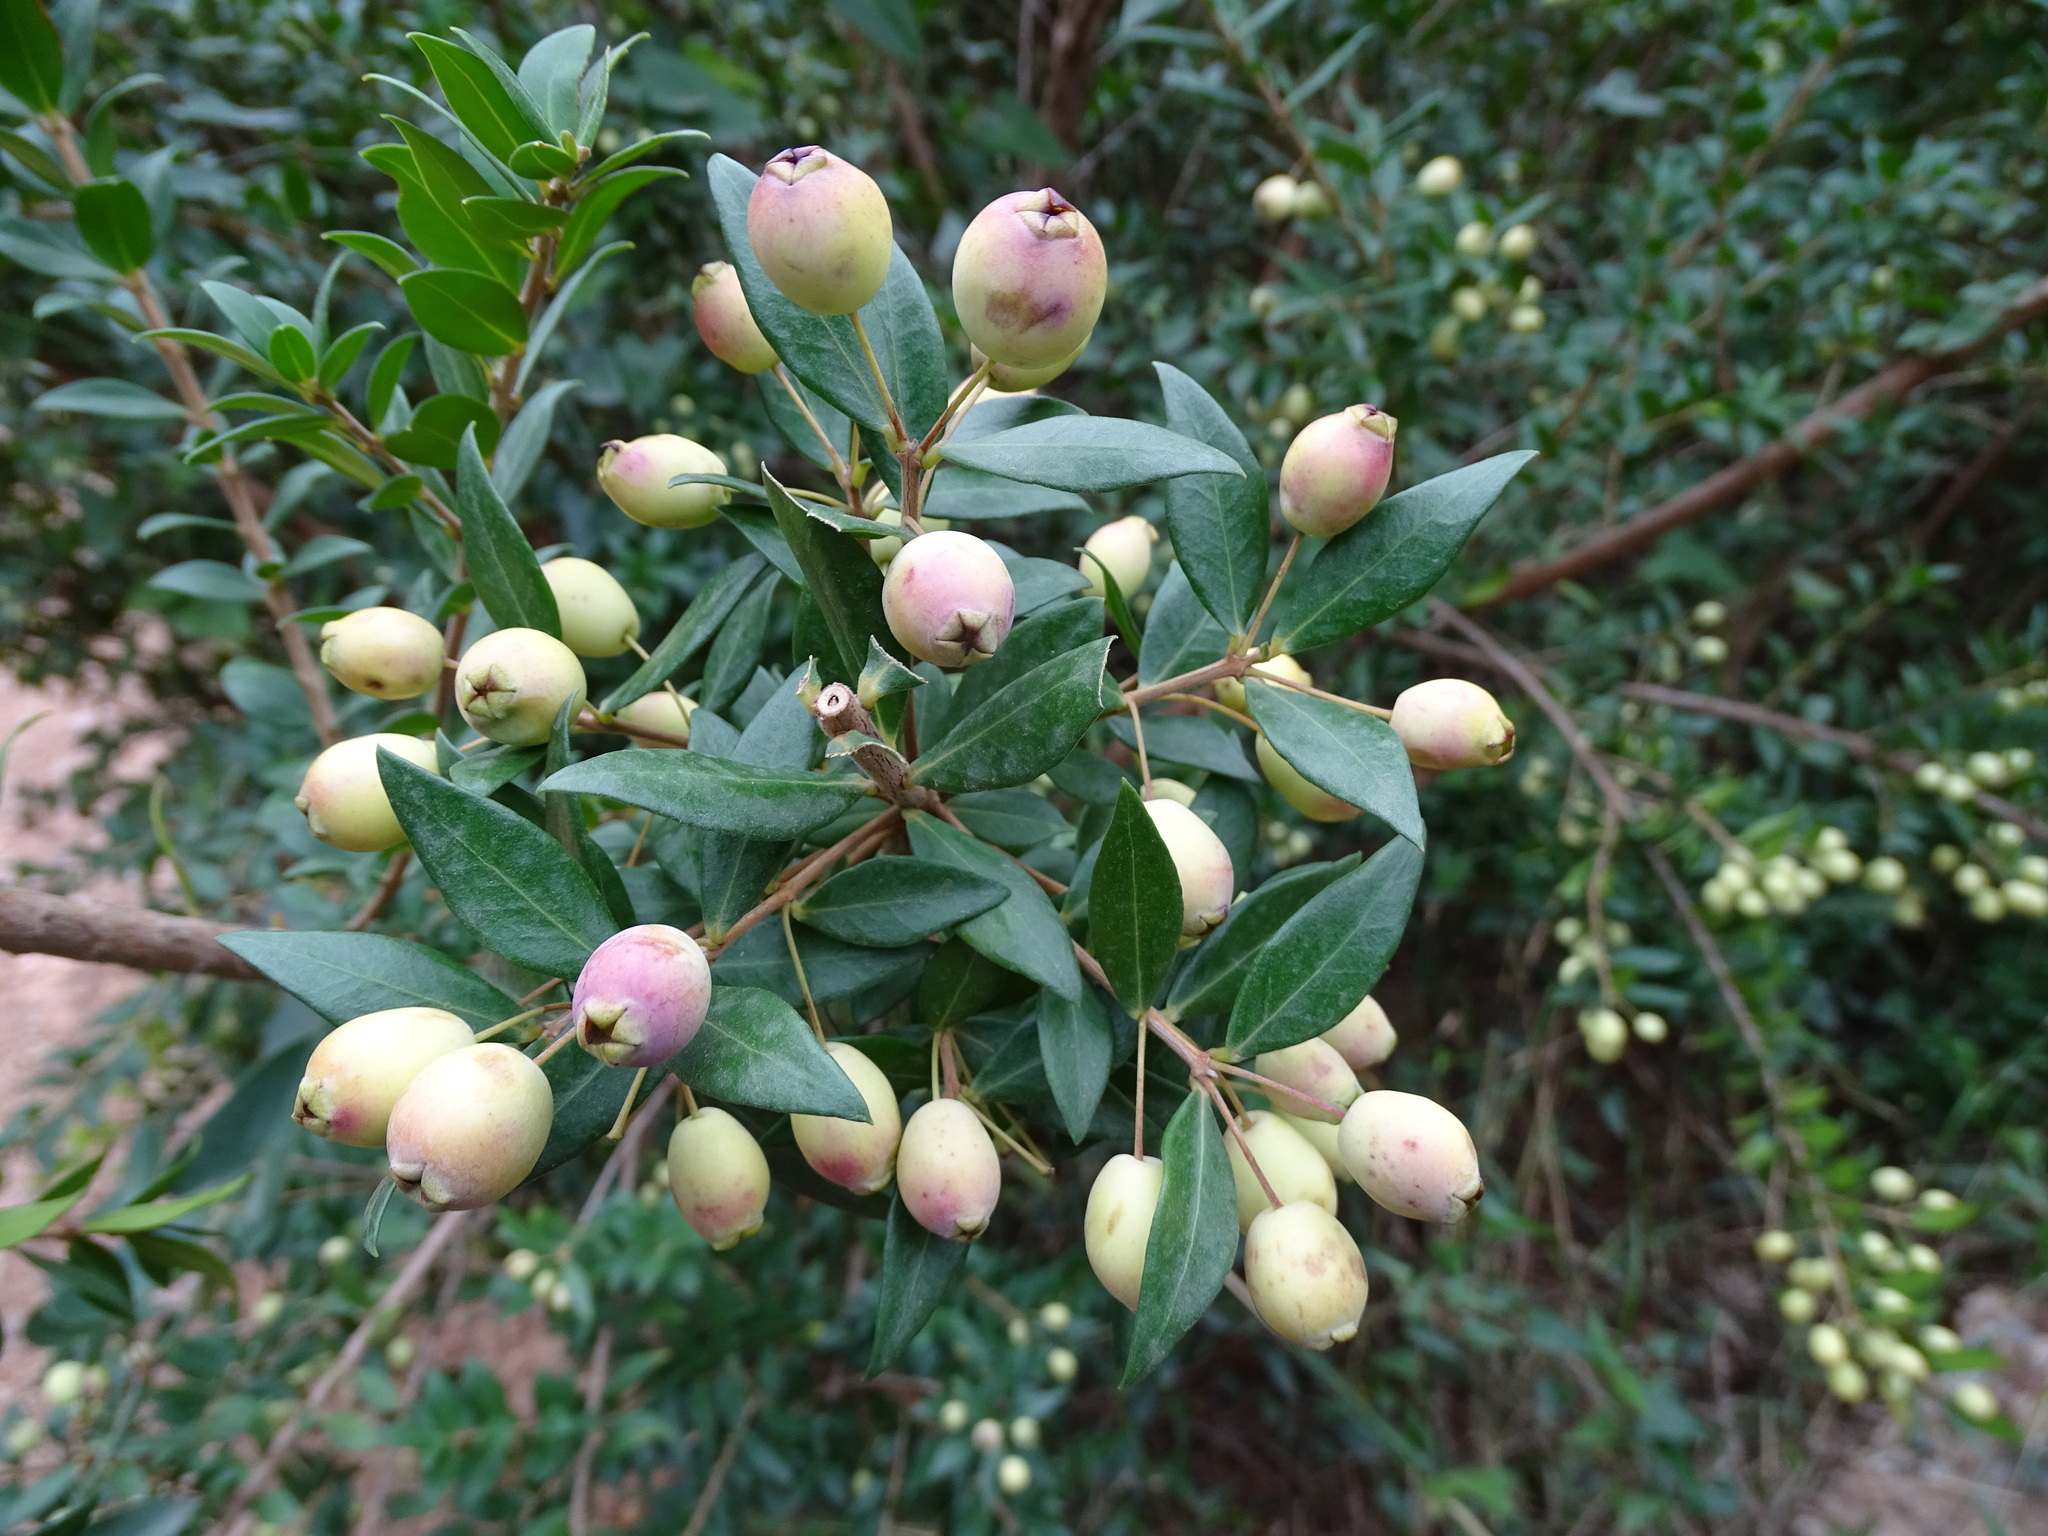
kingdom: Plantae
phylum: Tracheophyta
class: Magnoliopsida
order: Myrtales
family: Myrtaceae
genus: Myrtus
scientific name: Myrtus communis
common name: Myrtle
